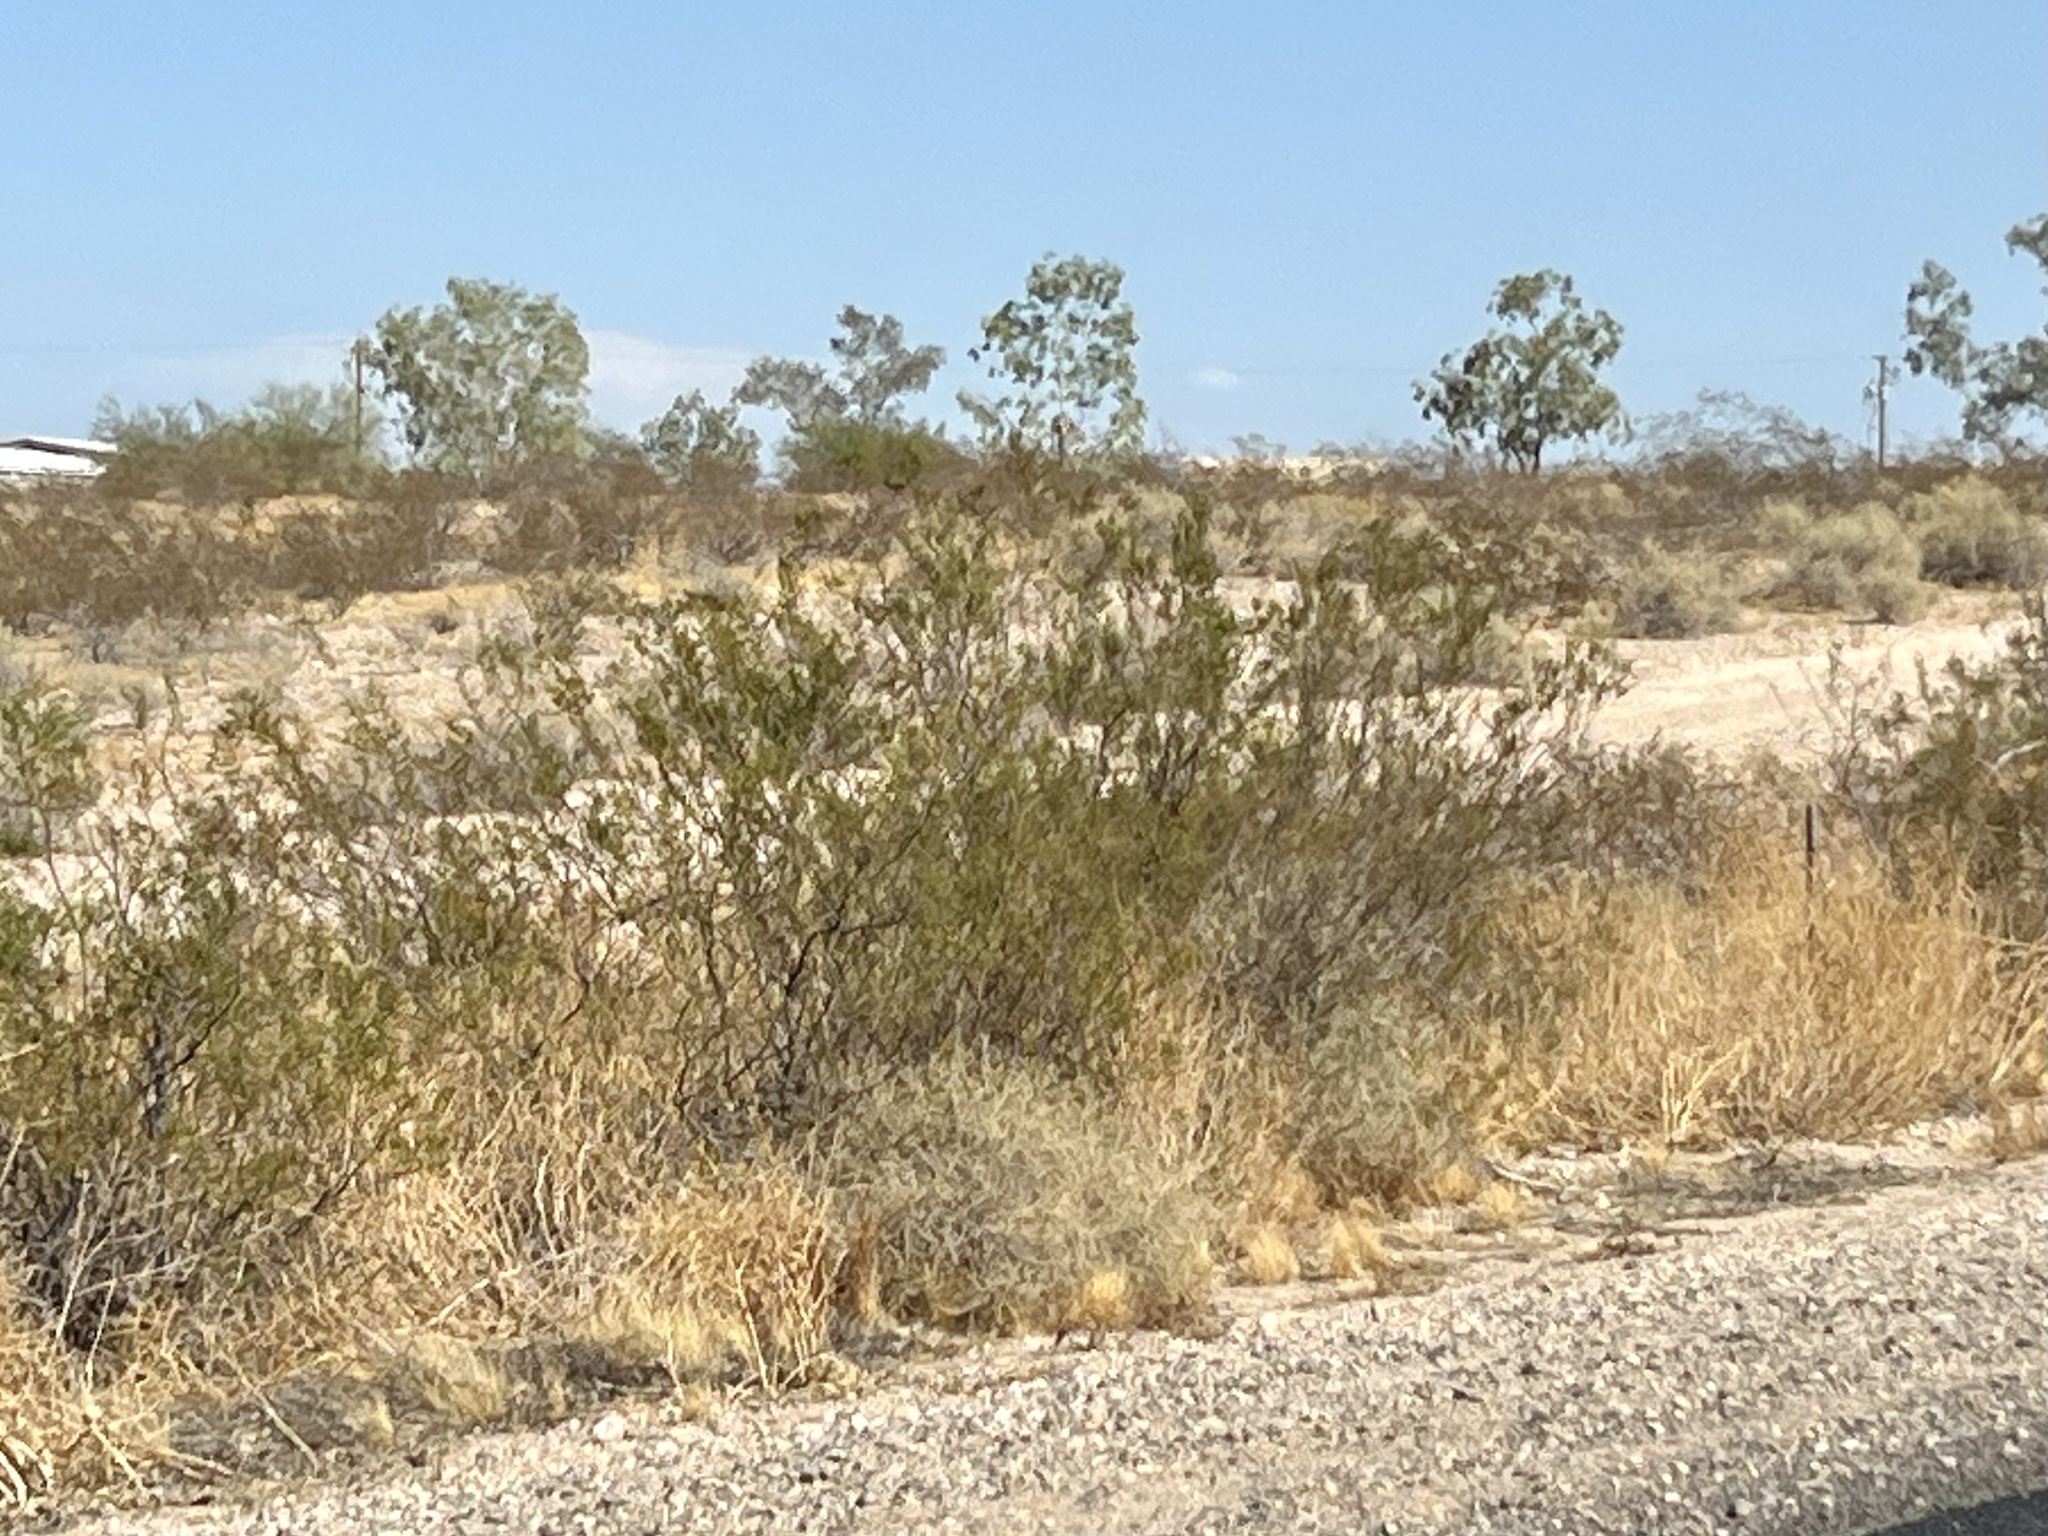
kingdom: Plantae
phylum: Tracheophyta
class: Magnoliopsida
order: Zygophyllales
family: Zygophyllaceae
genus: Larrea
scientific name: Larrea tridentata
